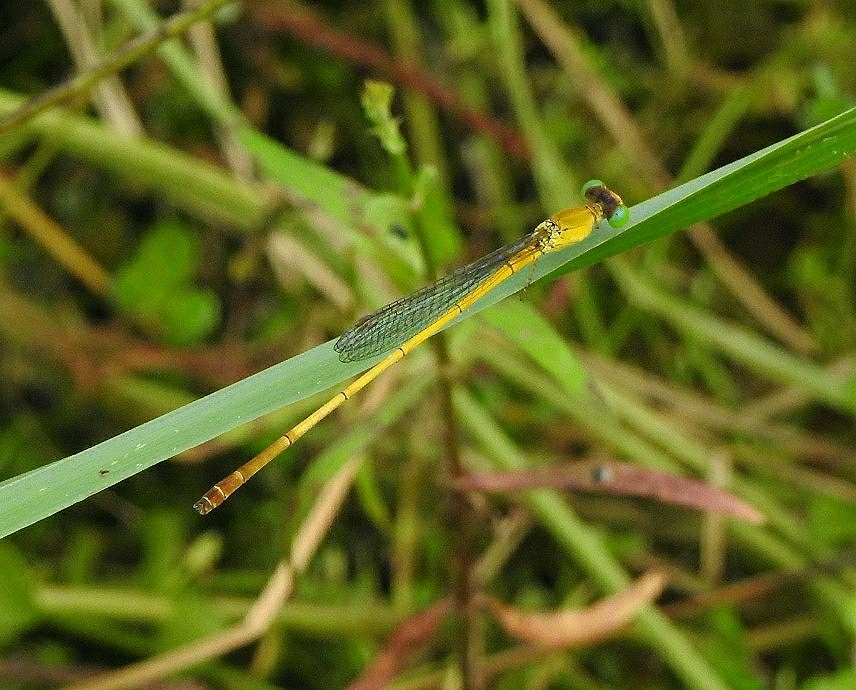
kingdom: Animalia
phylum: Arthropoda
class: Insecta
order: Odonata
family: Coenagrionidae
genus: Ceriagrion
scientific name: Ceriagrion chromothorax
